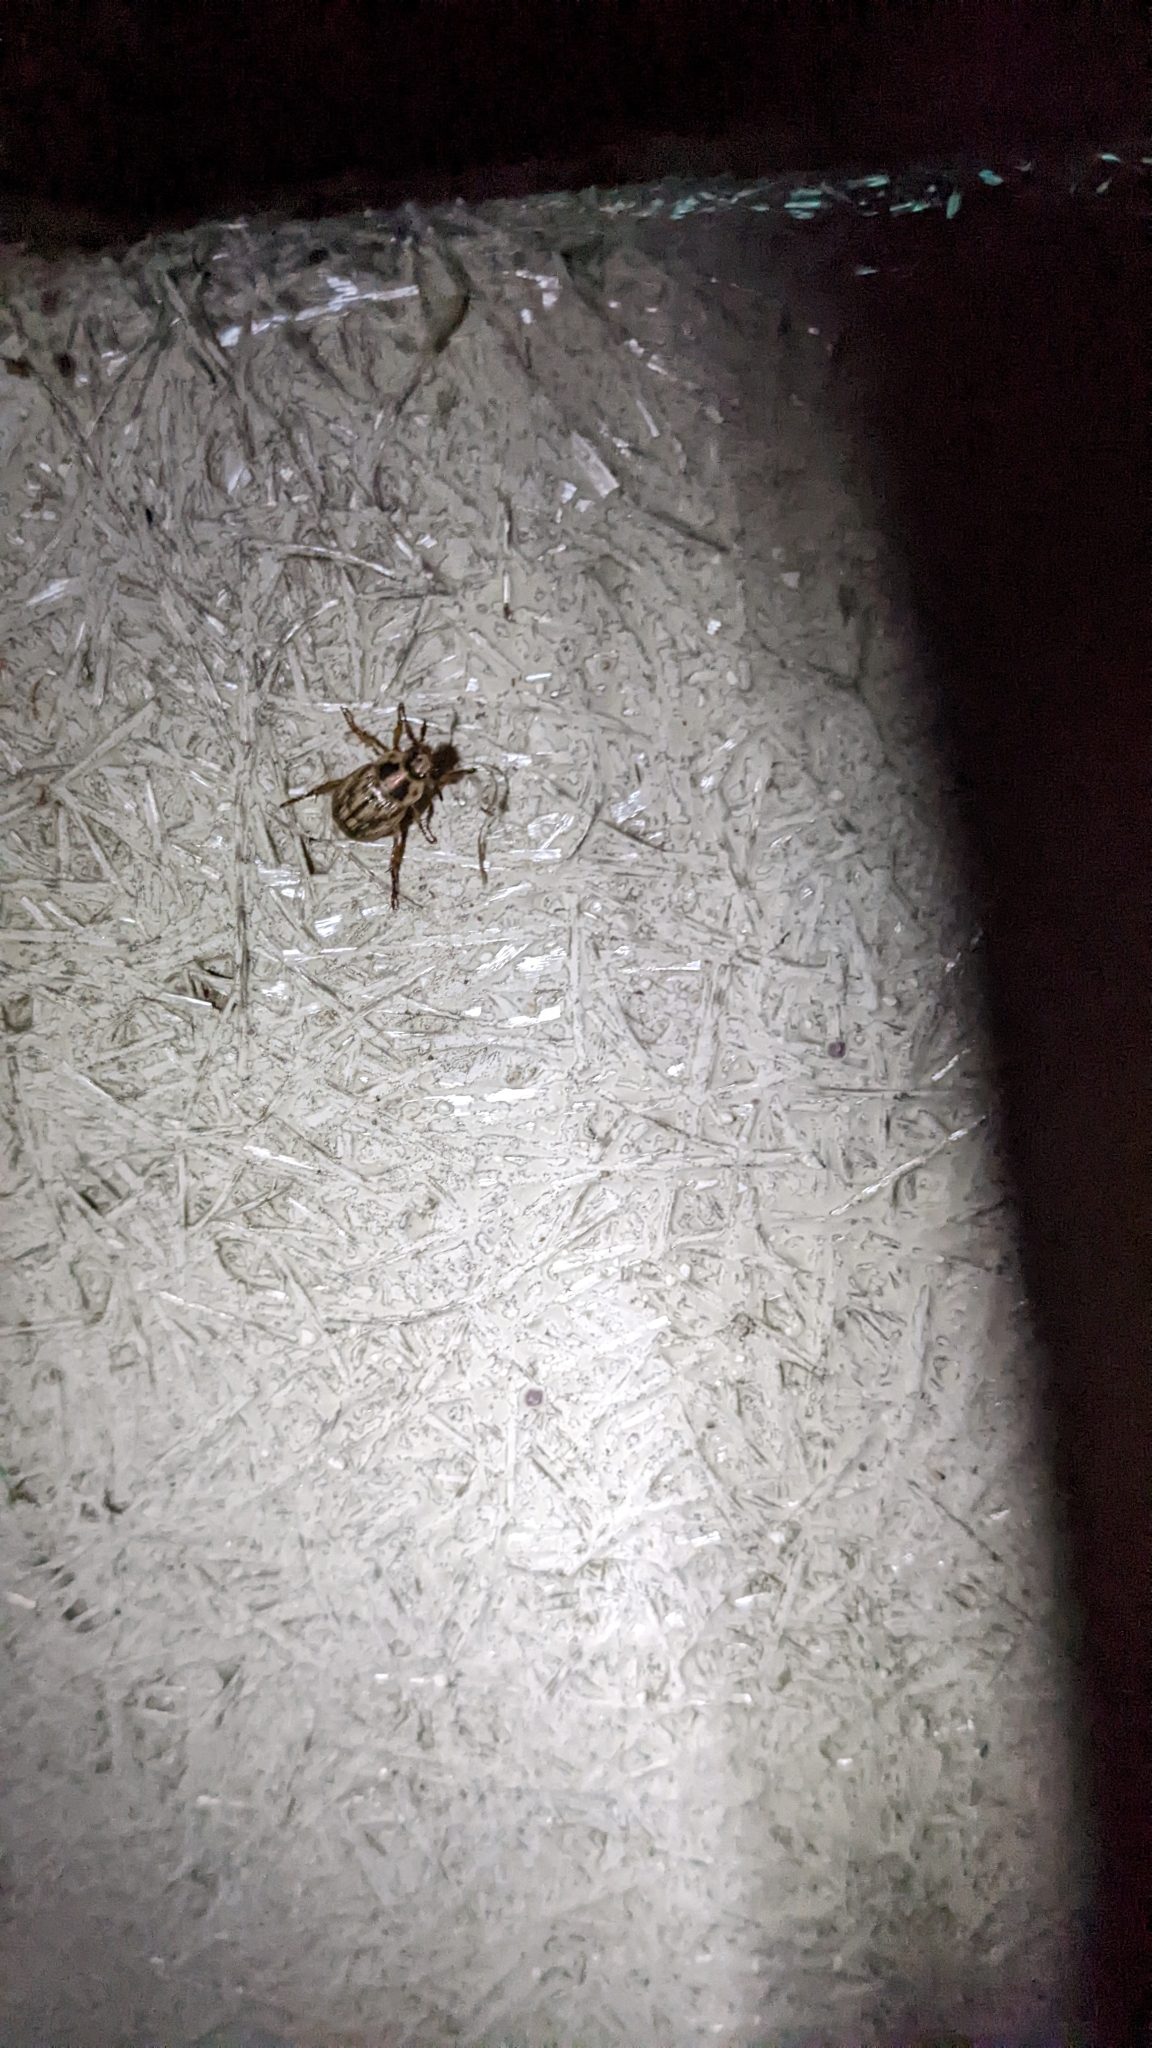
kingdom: Animalia
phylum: Arthropoda
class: Insecta
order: Coleoptera
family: Scarabaeidae
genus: Exomala
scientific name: Exomala orientalis
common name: Oriental beetle
